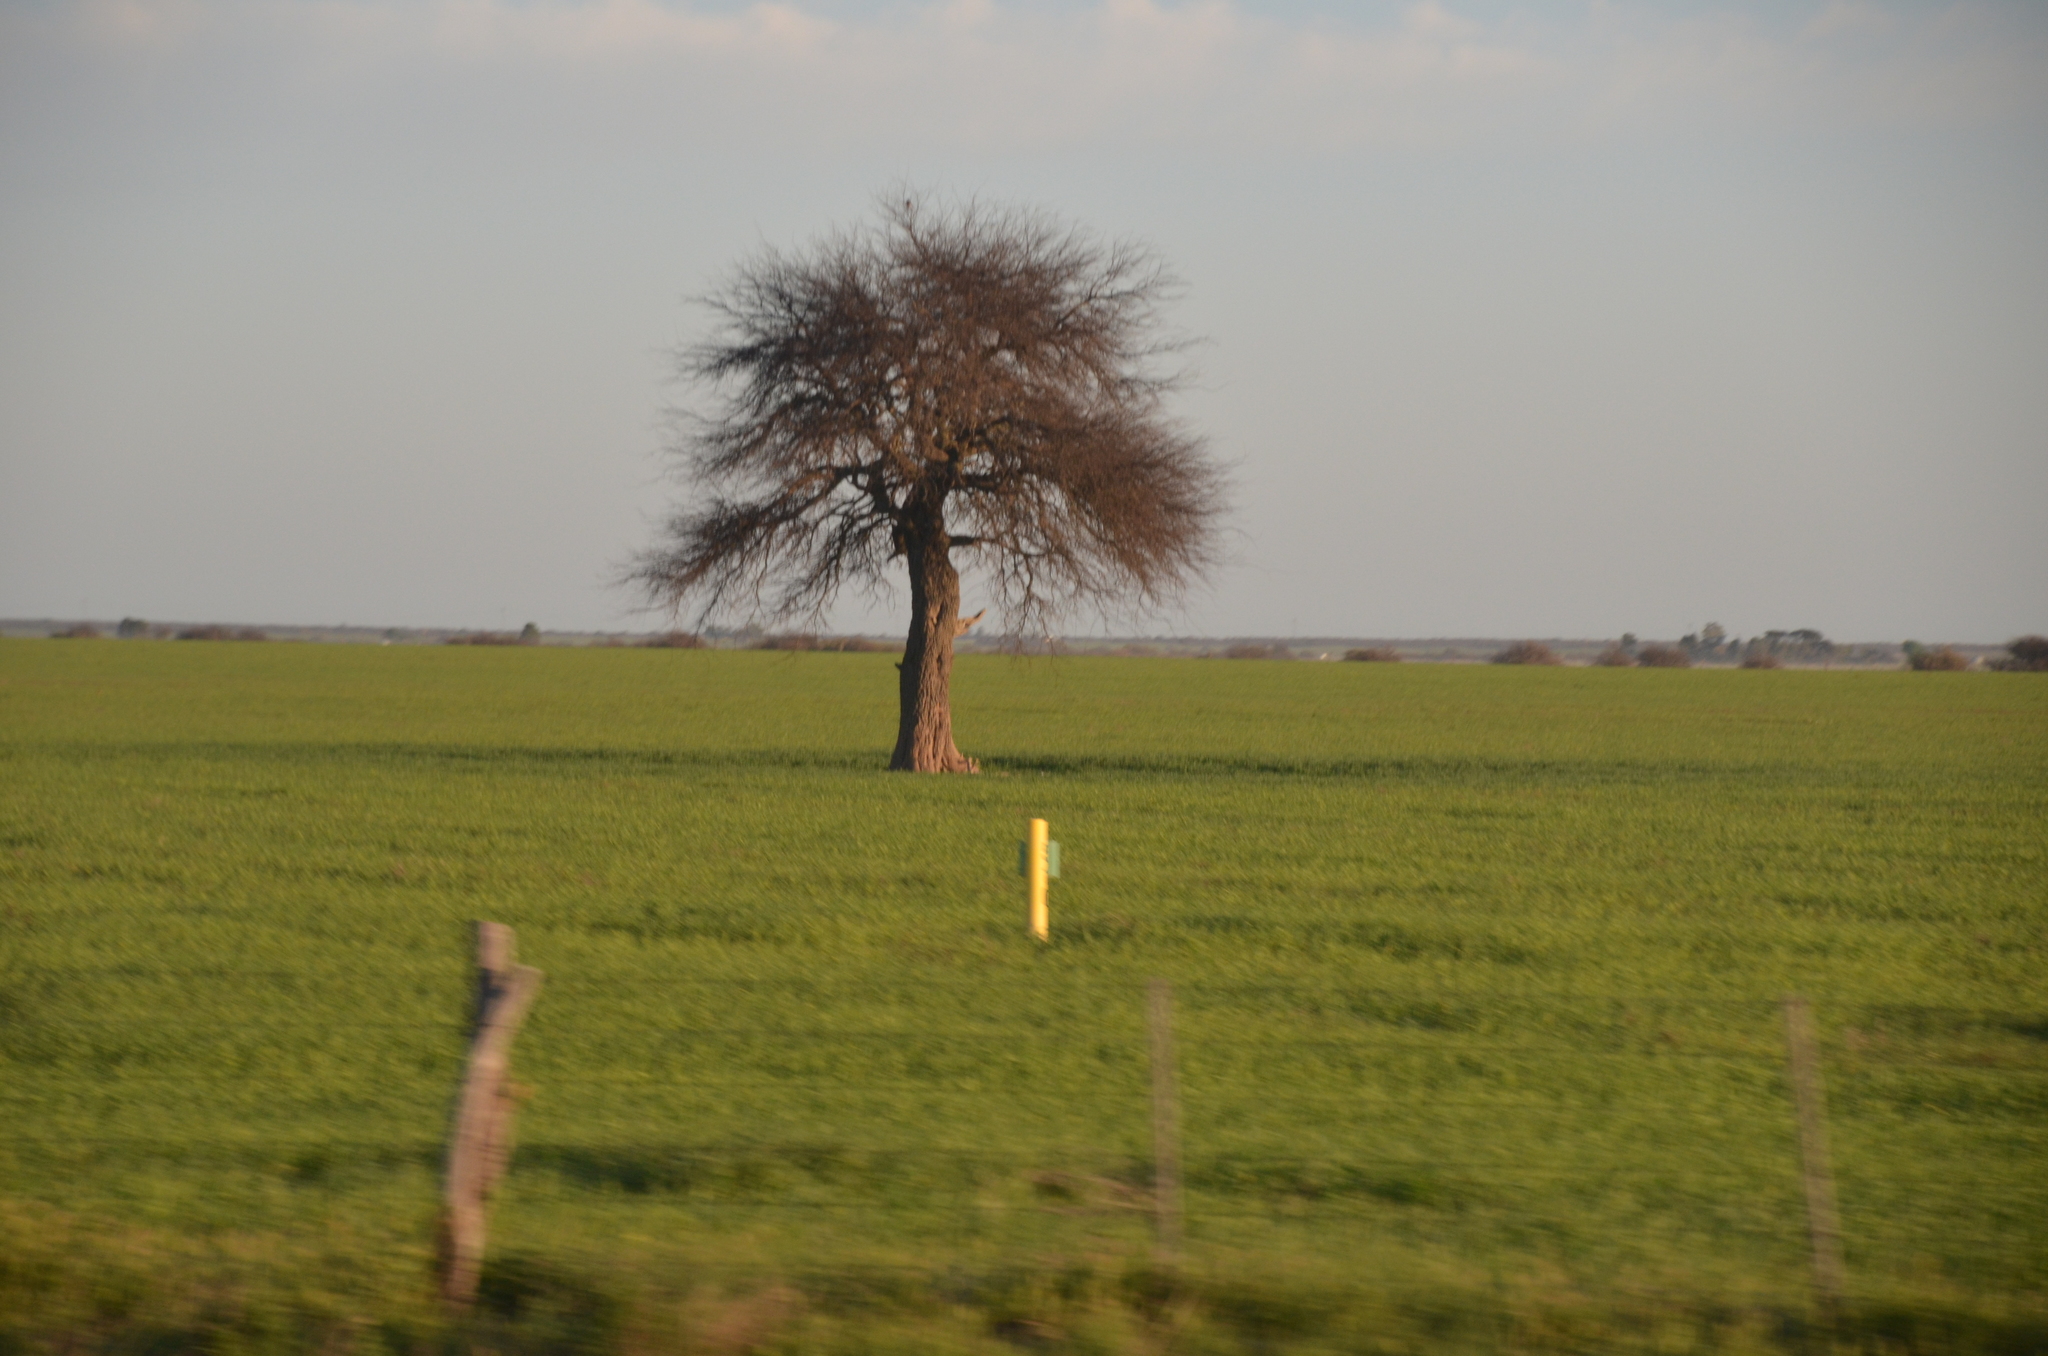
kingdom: Plantae
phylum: Tracheophyta
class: Magnoliopsida
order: Fabales
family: Fabaceae
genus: Prosopis
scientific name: Prosopis caldenia
